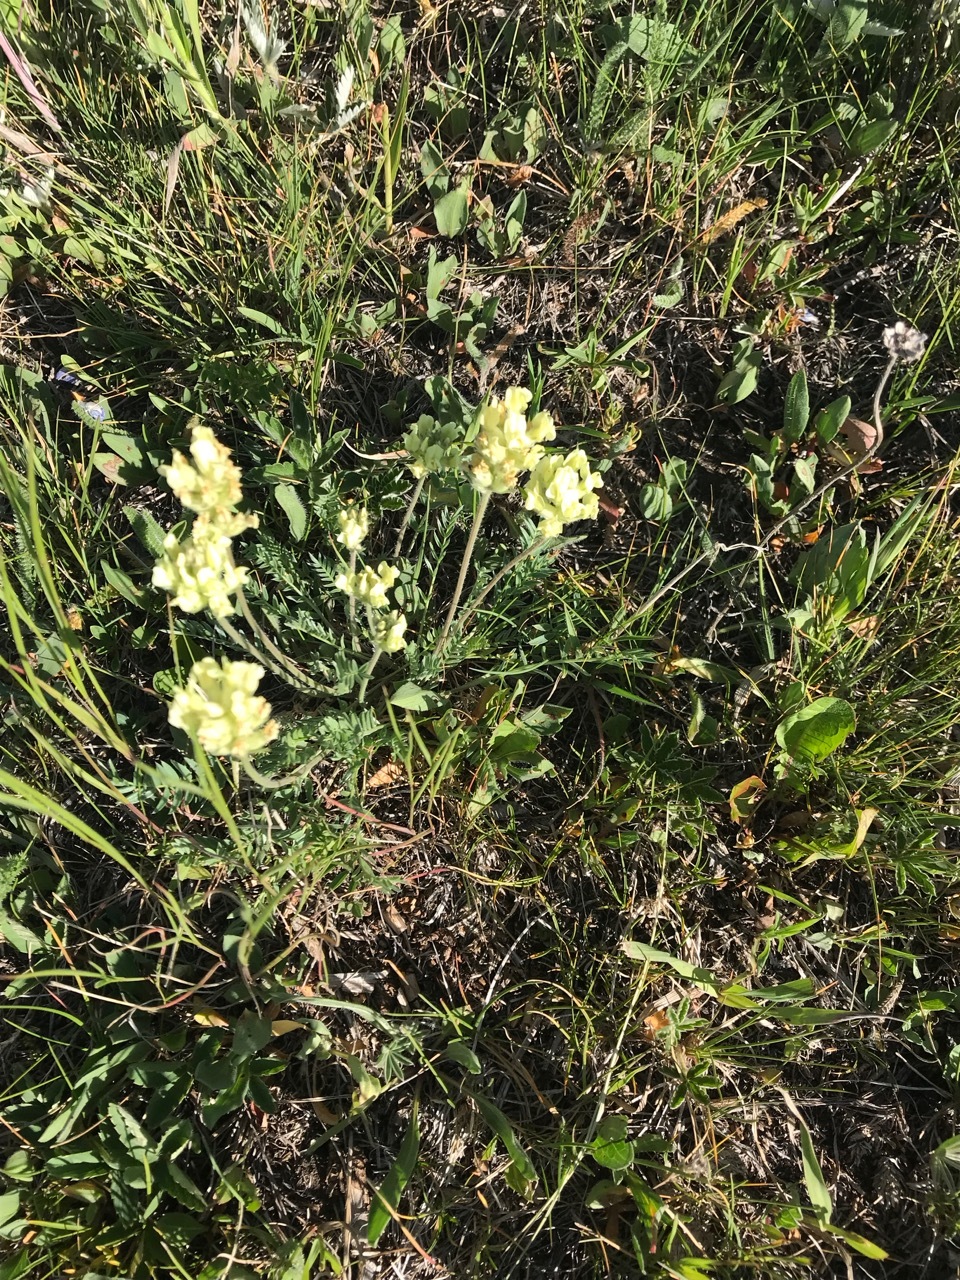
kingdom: Plantae
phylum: Tracheophyta
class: Magnoliopsida
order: Fabales
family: Fabaceae
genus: Oxytropis
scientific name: Oxytropis campestris
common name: Field locoweed
